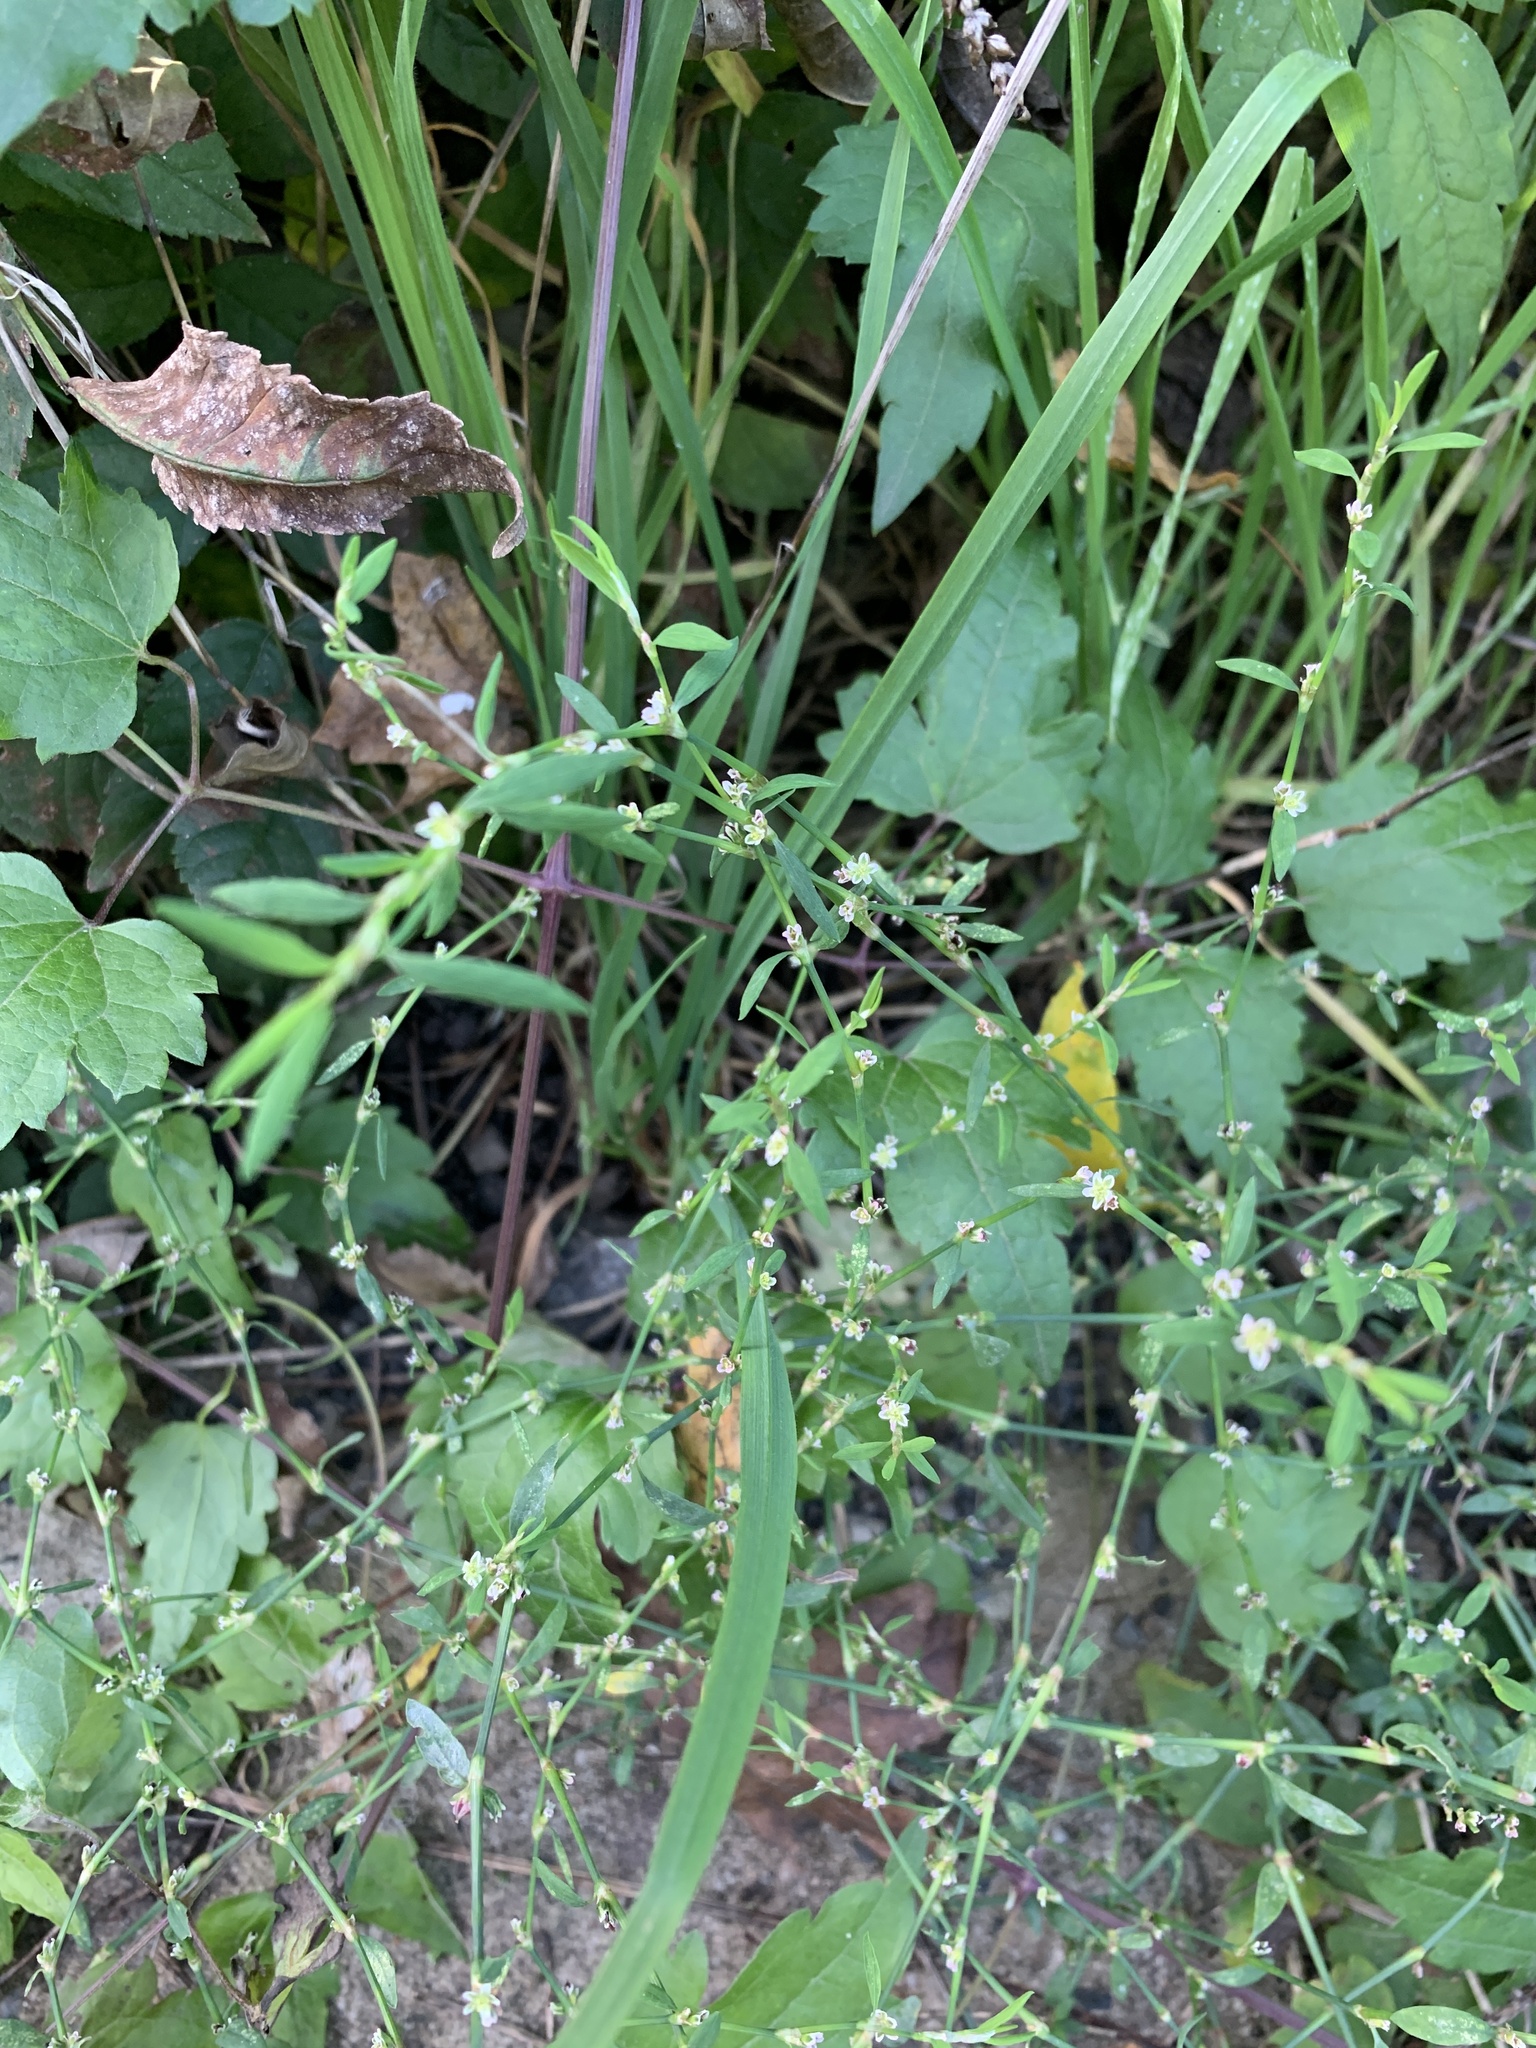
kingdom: Plantae
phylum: Tracheophyta
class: Magnoliopsida
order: Caryophyllales
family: Polygonaceae
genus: Polygonum
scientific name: Polygonum
